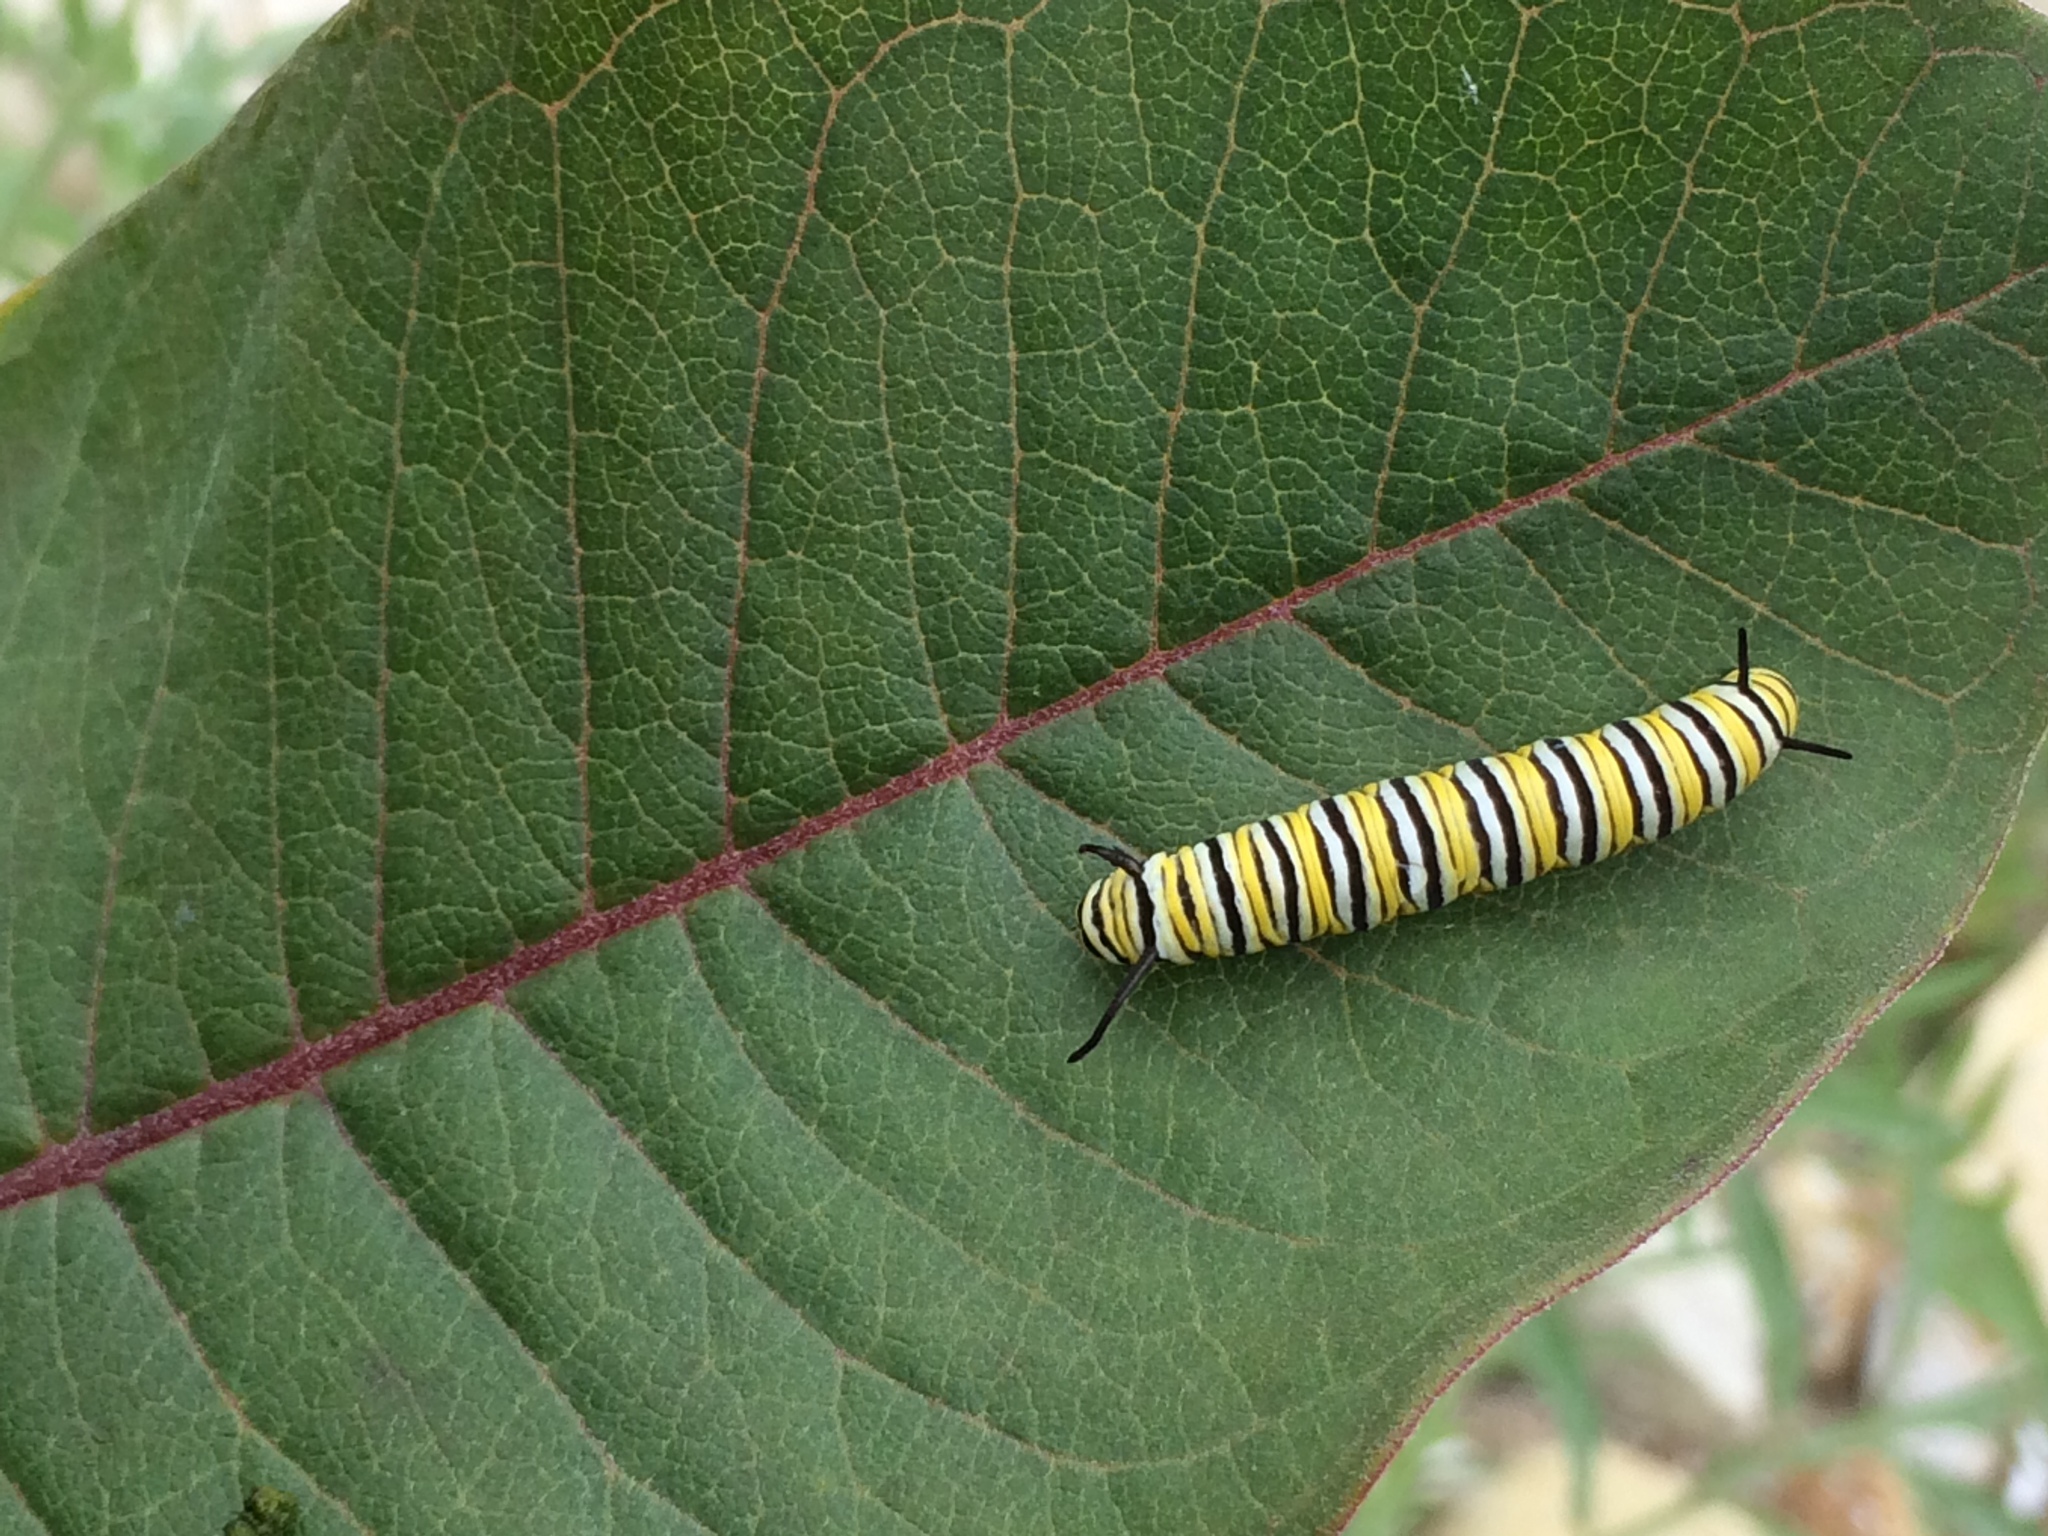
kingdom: Animalia
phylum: Arthropoda
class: Insecta
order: Lepidoptera
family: Nymphalidae
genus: Danaus
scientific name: Danaus plexippus
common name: Monarch
